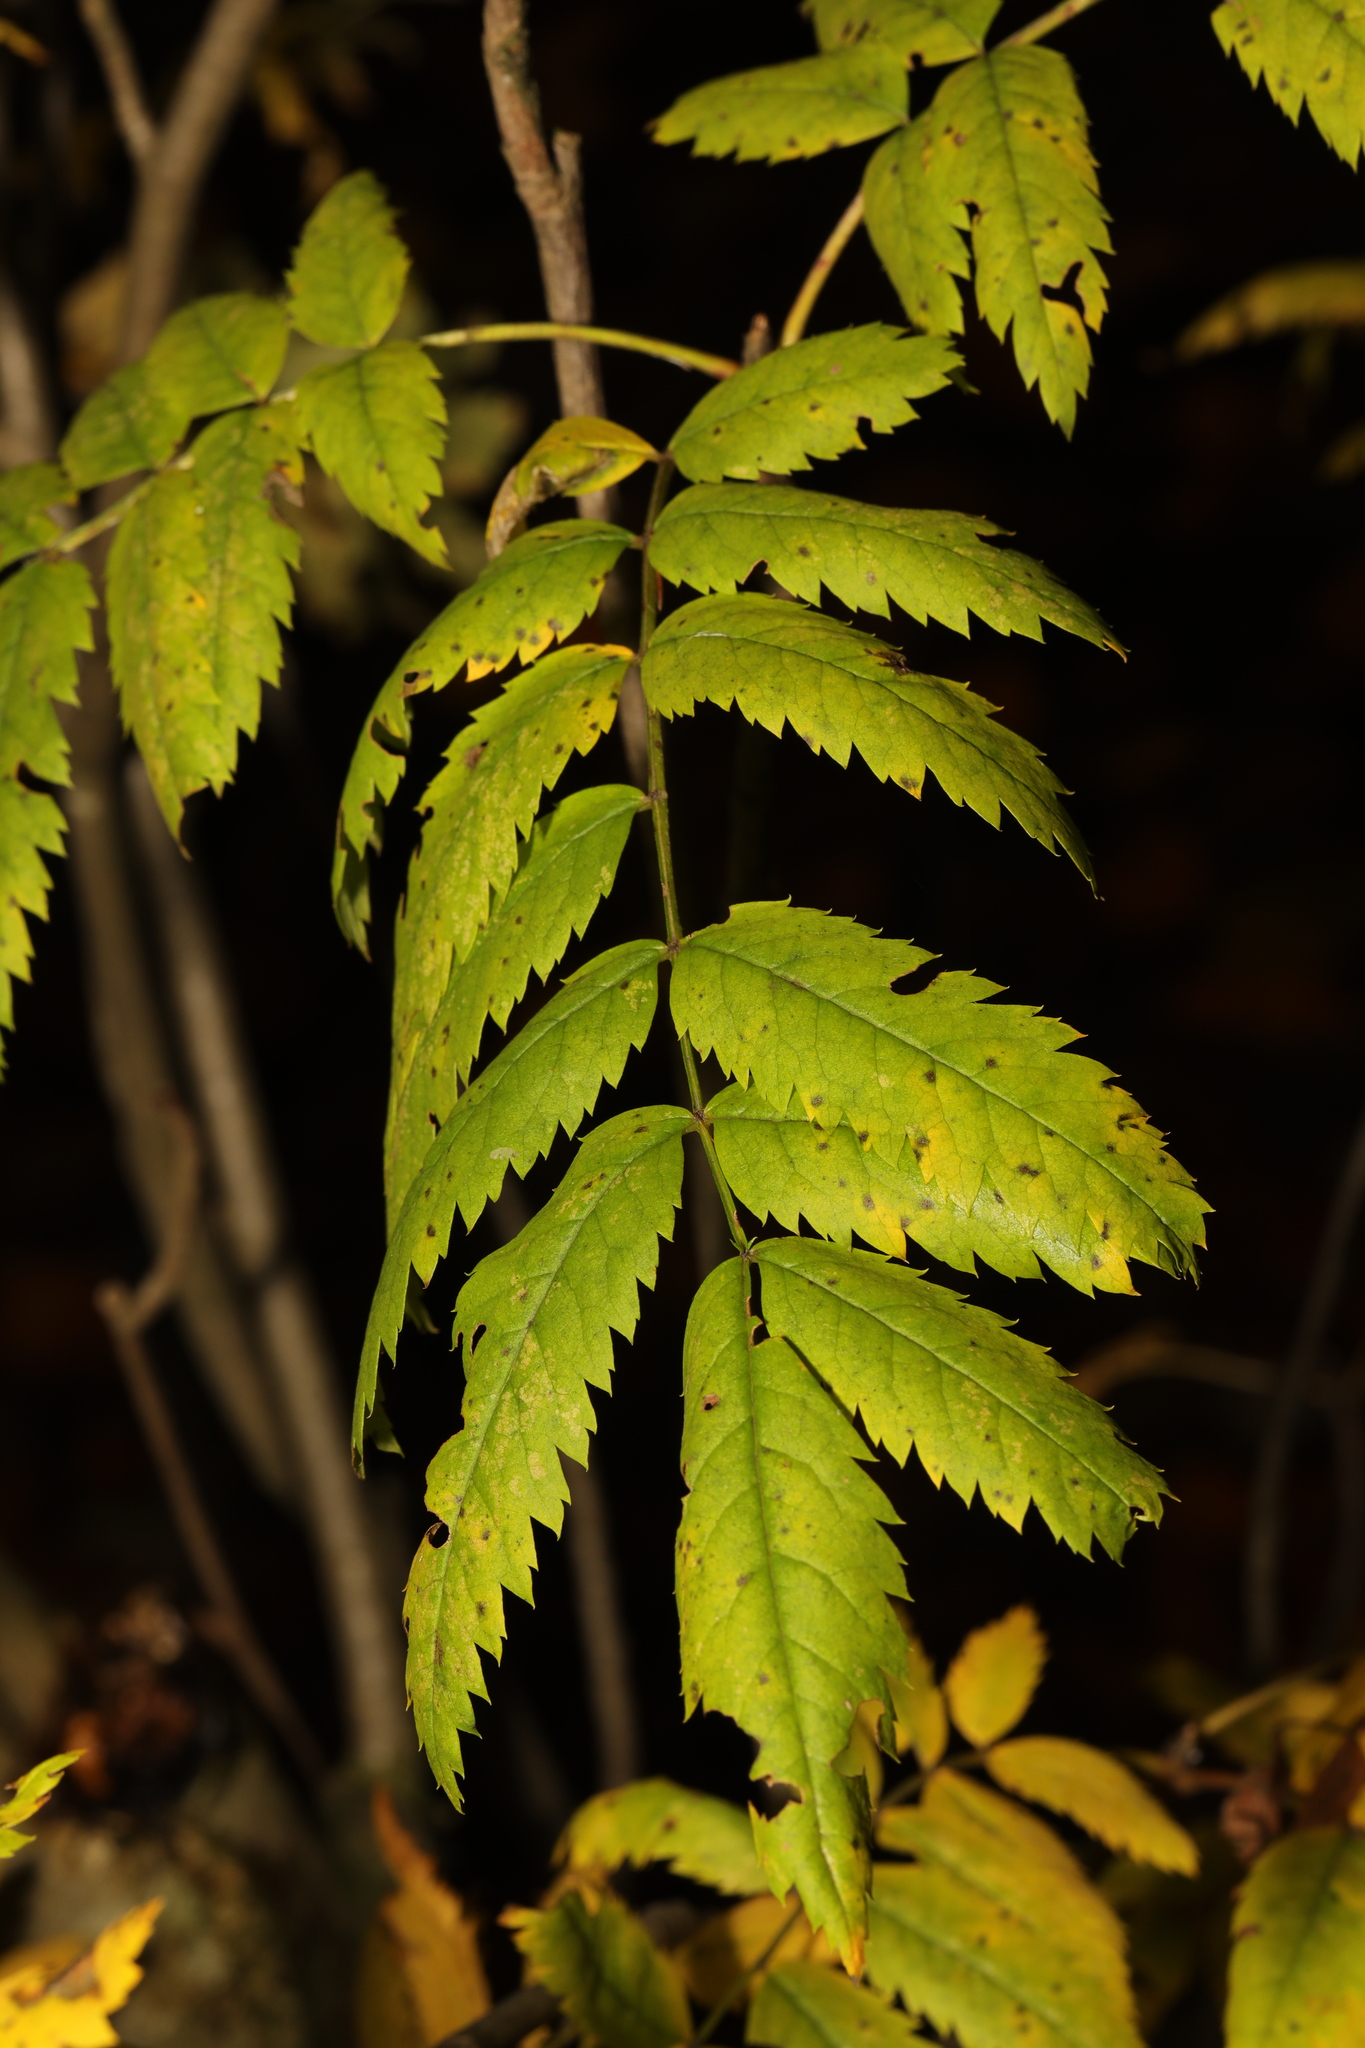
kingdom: Plantae
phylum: Tracheophyta
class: Magnoliopsida
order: Rosales
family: Rosaceae
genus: Sorbus
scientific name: Sorbus aucuparia
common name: Rowan
